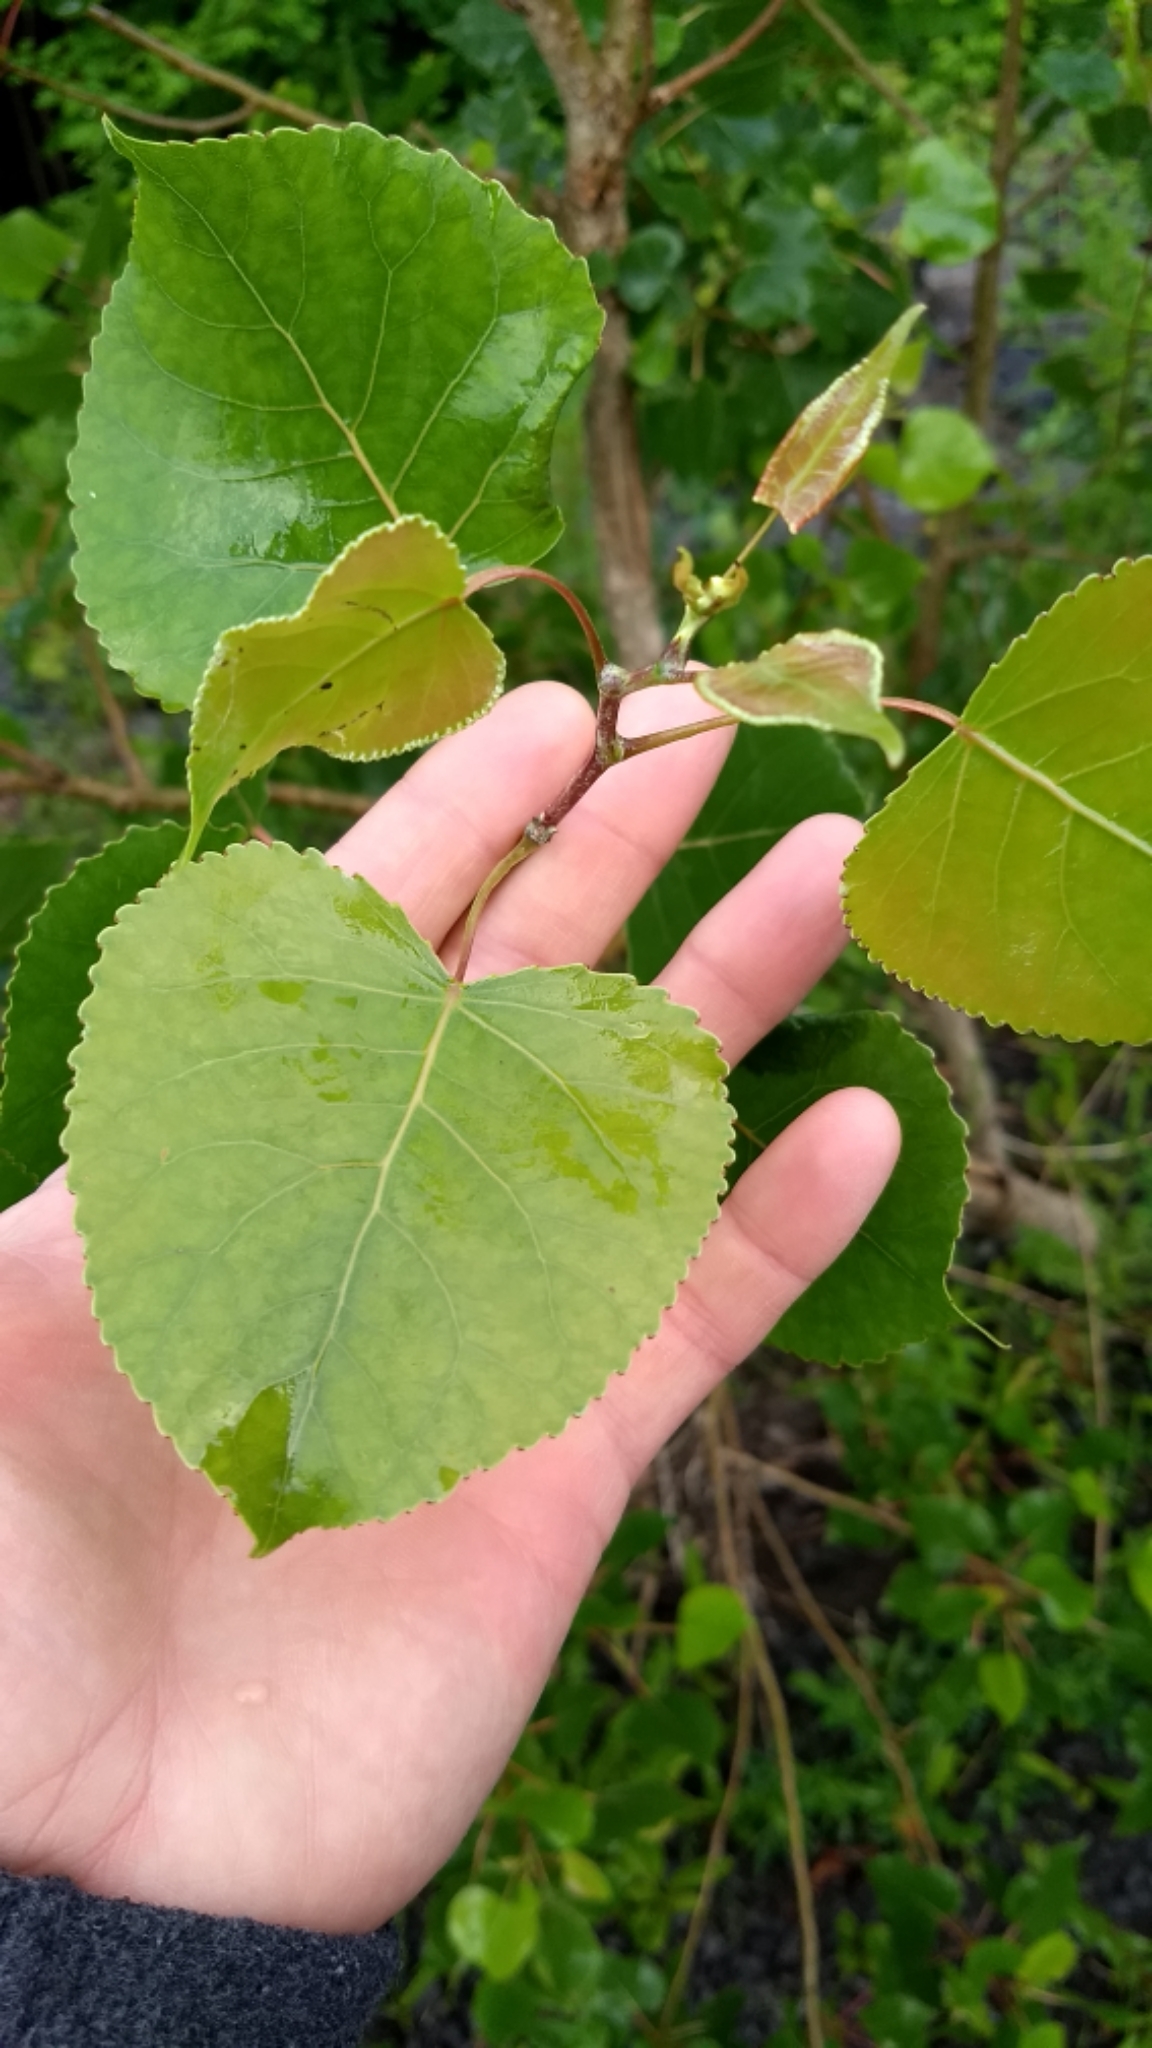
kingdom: Plantae
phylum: Tracheophyta
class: Magnoliopsida
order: Malpighiales
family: Salicaceae
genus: Populus
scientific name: Populus deltoides
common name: Eastern cottonwood
